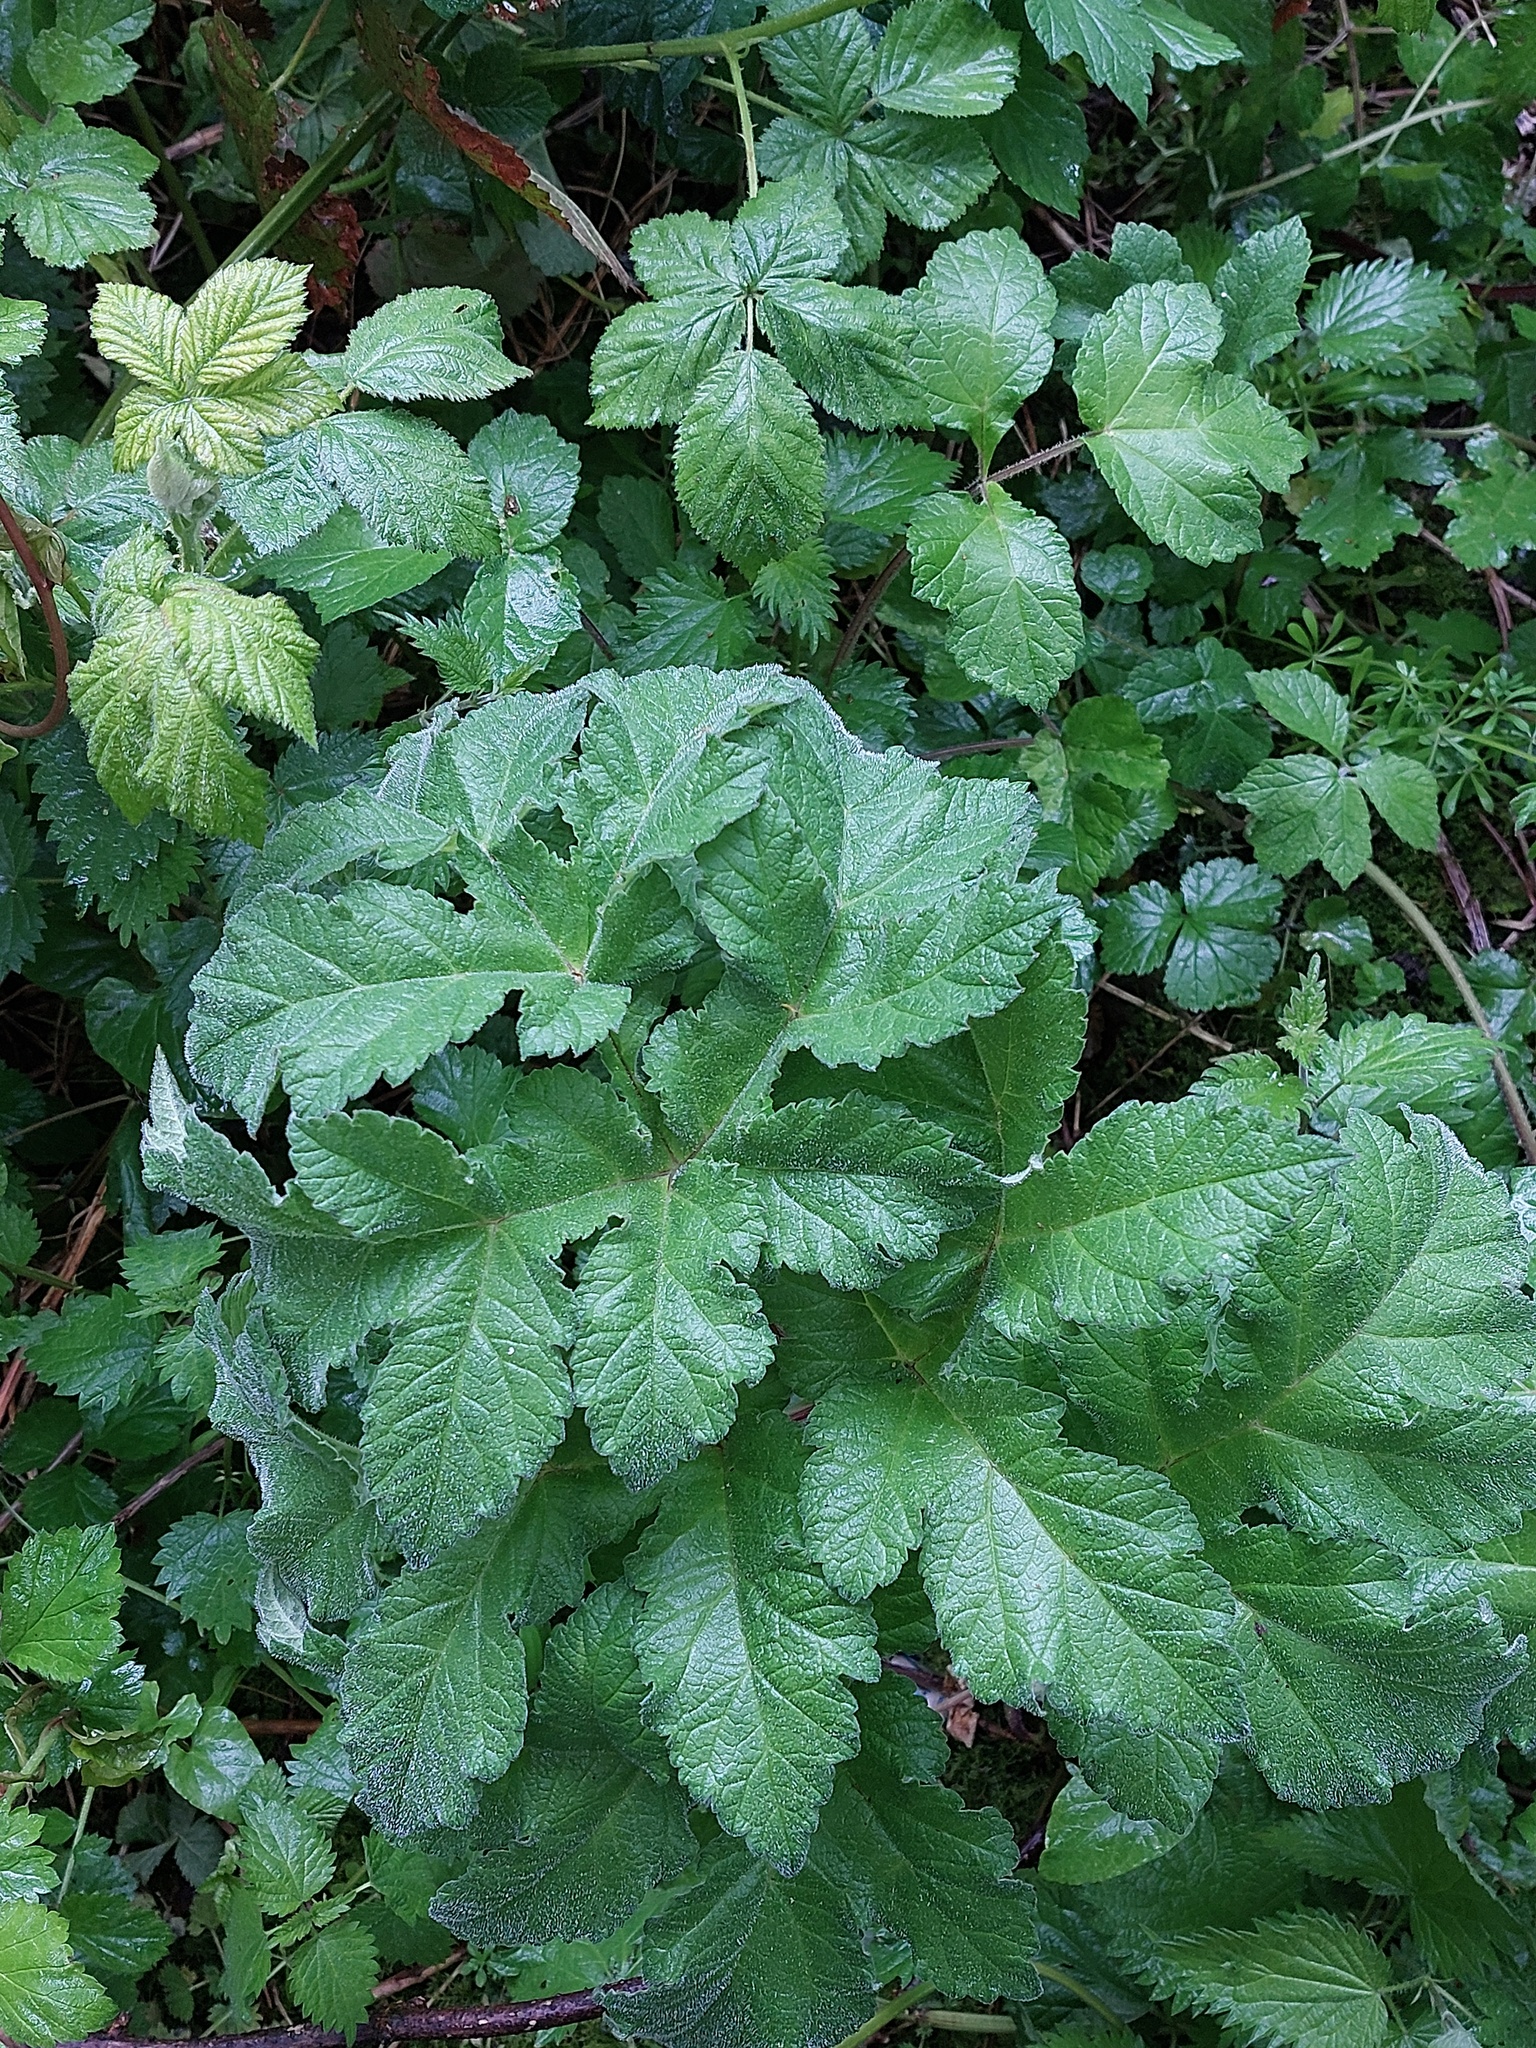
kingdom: Plantae
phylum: Tracheophyta
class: Magnoliopsida
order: Apiales
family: Apiaceae
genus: Heracleum
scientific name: Heracleum sphondylium
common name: Hogweed
